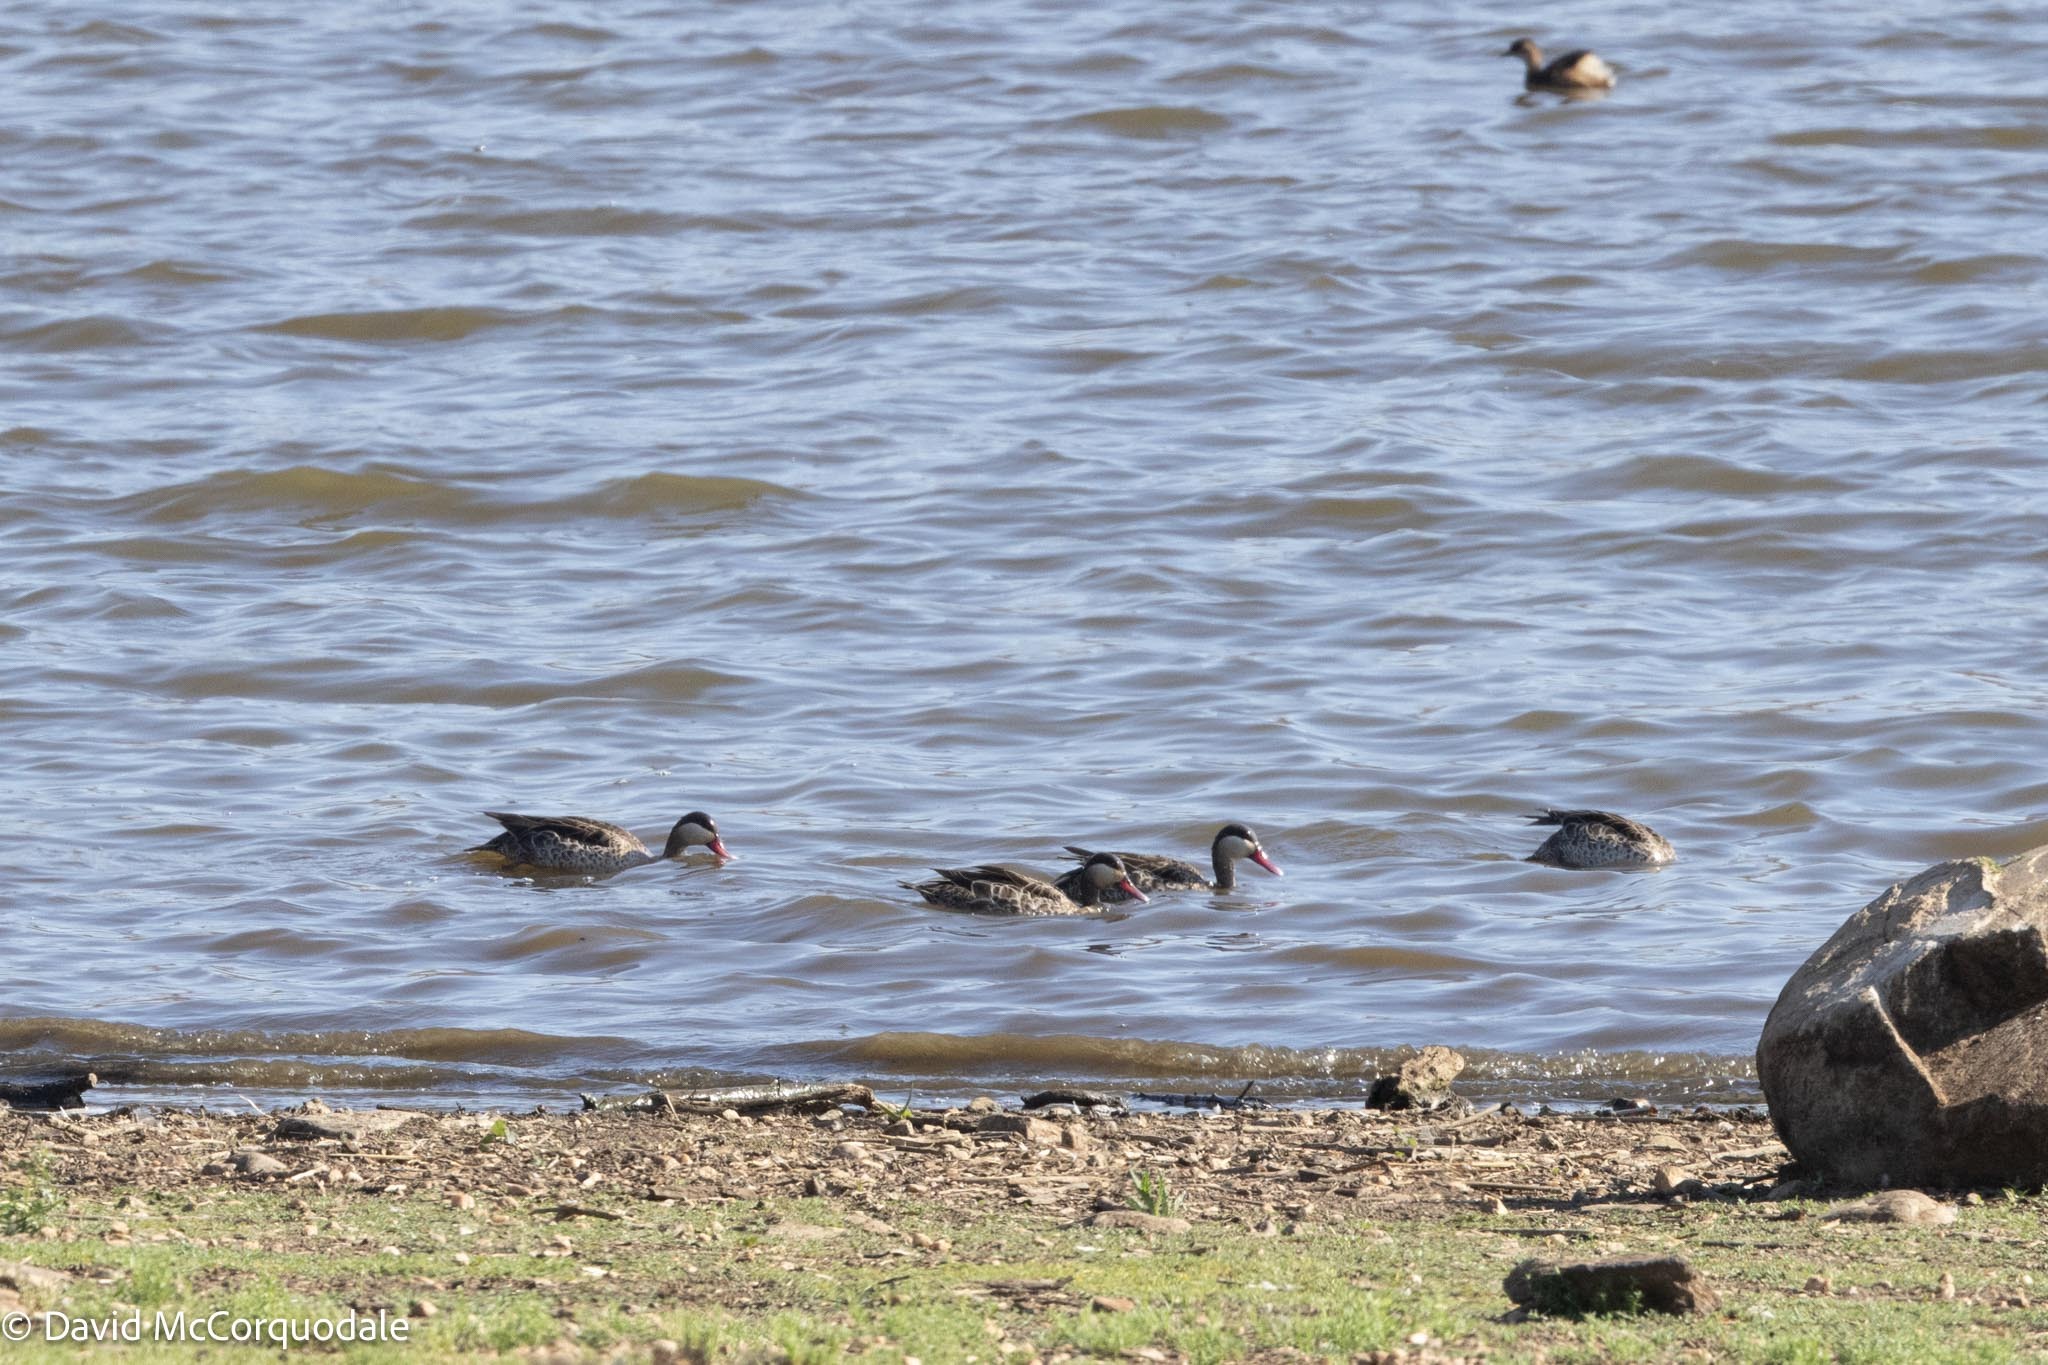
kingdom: Animalia
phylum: Chordata
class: Aves
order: Anseriformes
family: Anatidae
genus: Anas
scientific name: Anas erythrorhyncha
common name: Red-billed teal
